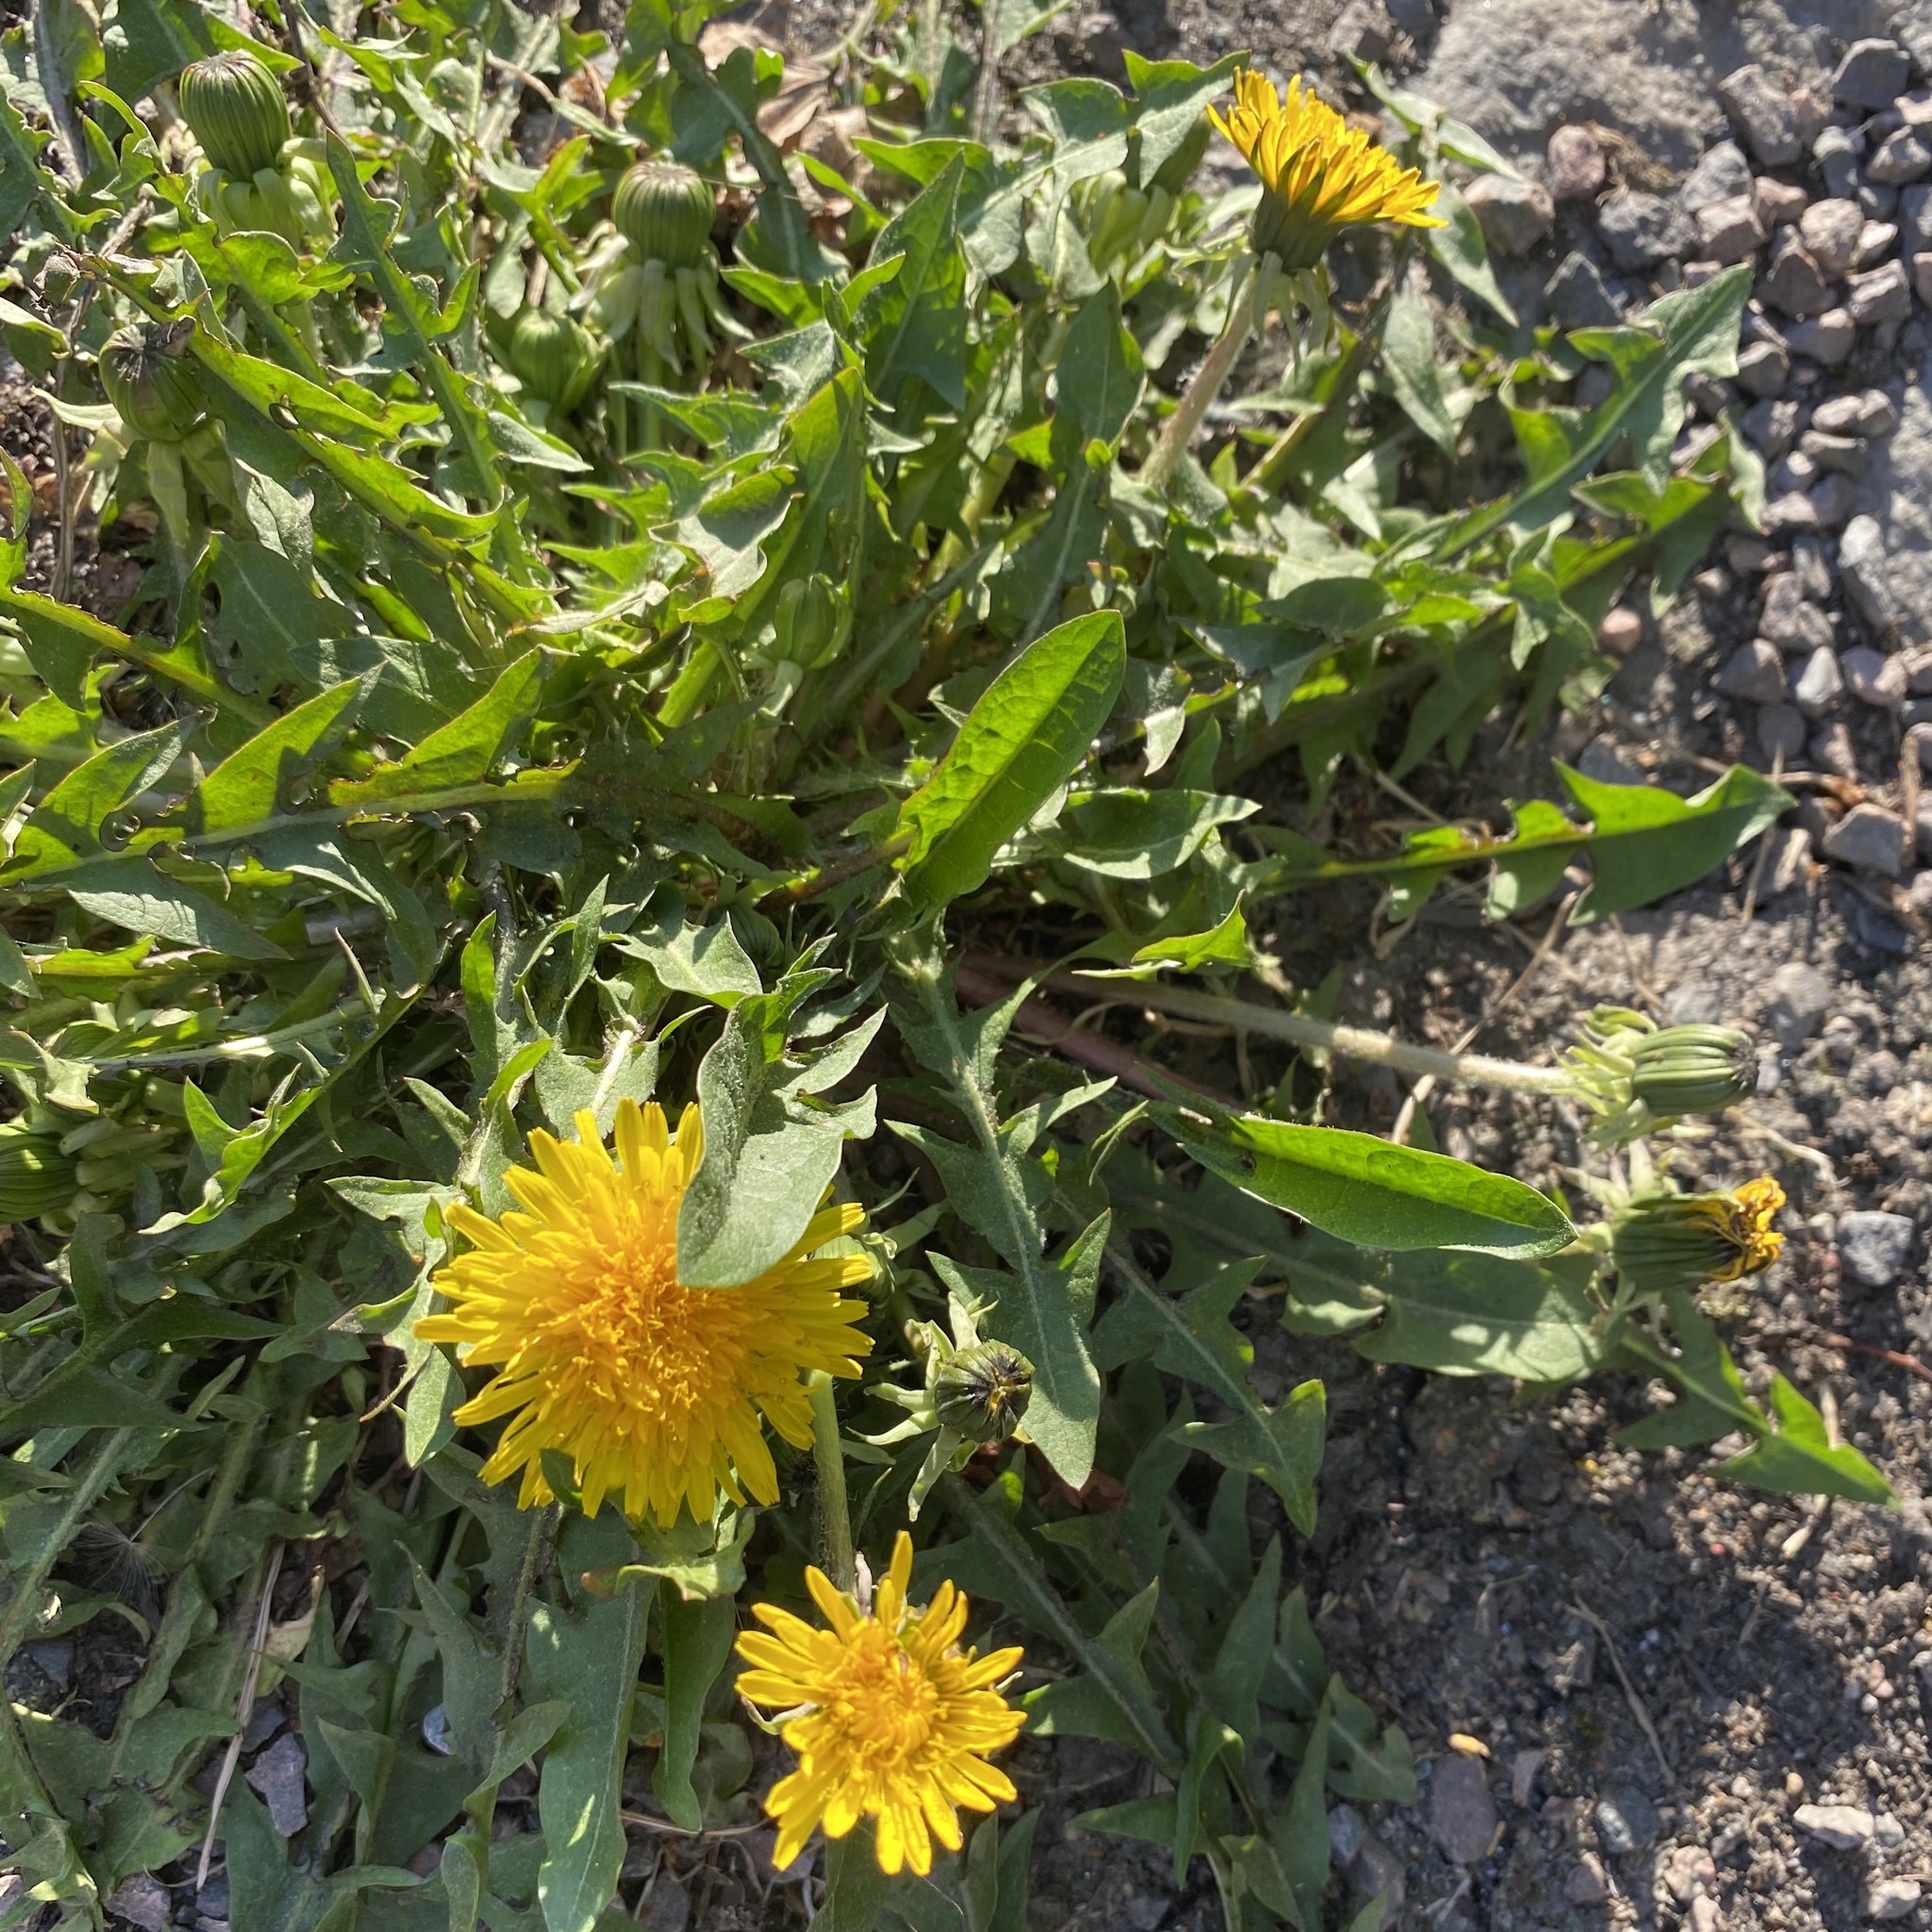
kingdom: Plantae
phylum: Tracheophyta
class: Magnoliopsida
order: Asterales
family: Asteraceae
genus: Taraxacum
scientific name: Taraxacum officinale
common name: Common dandelion
